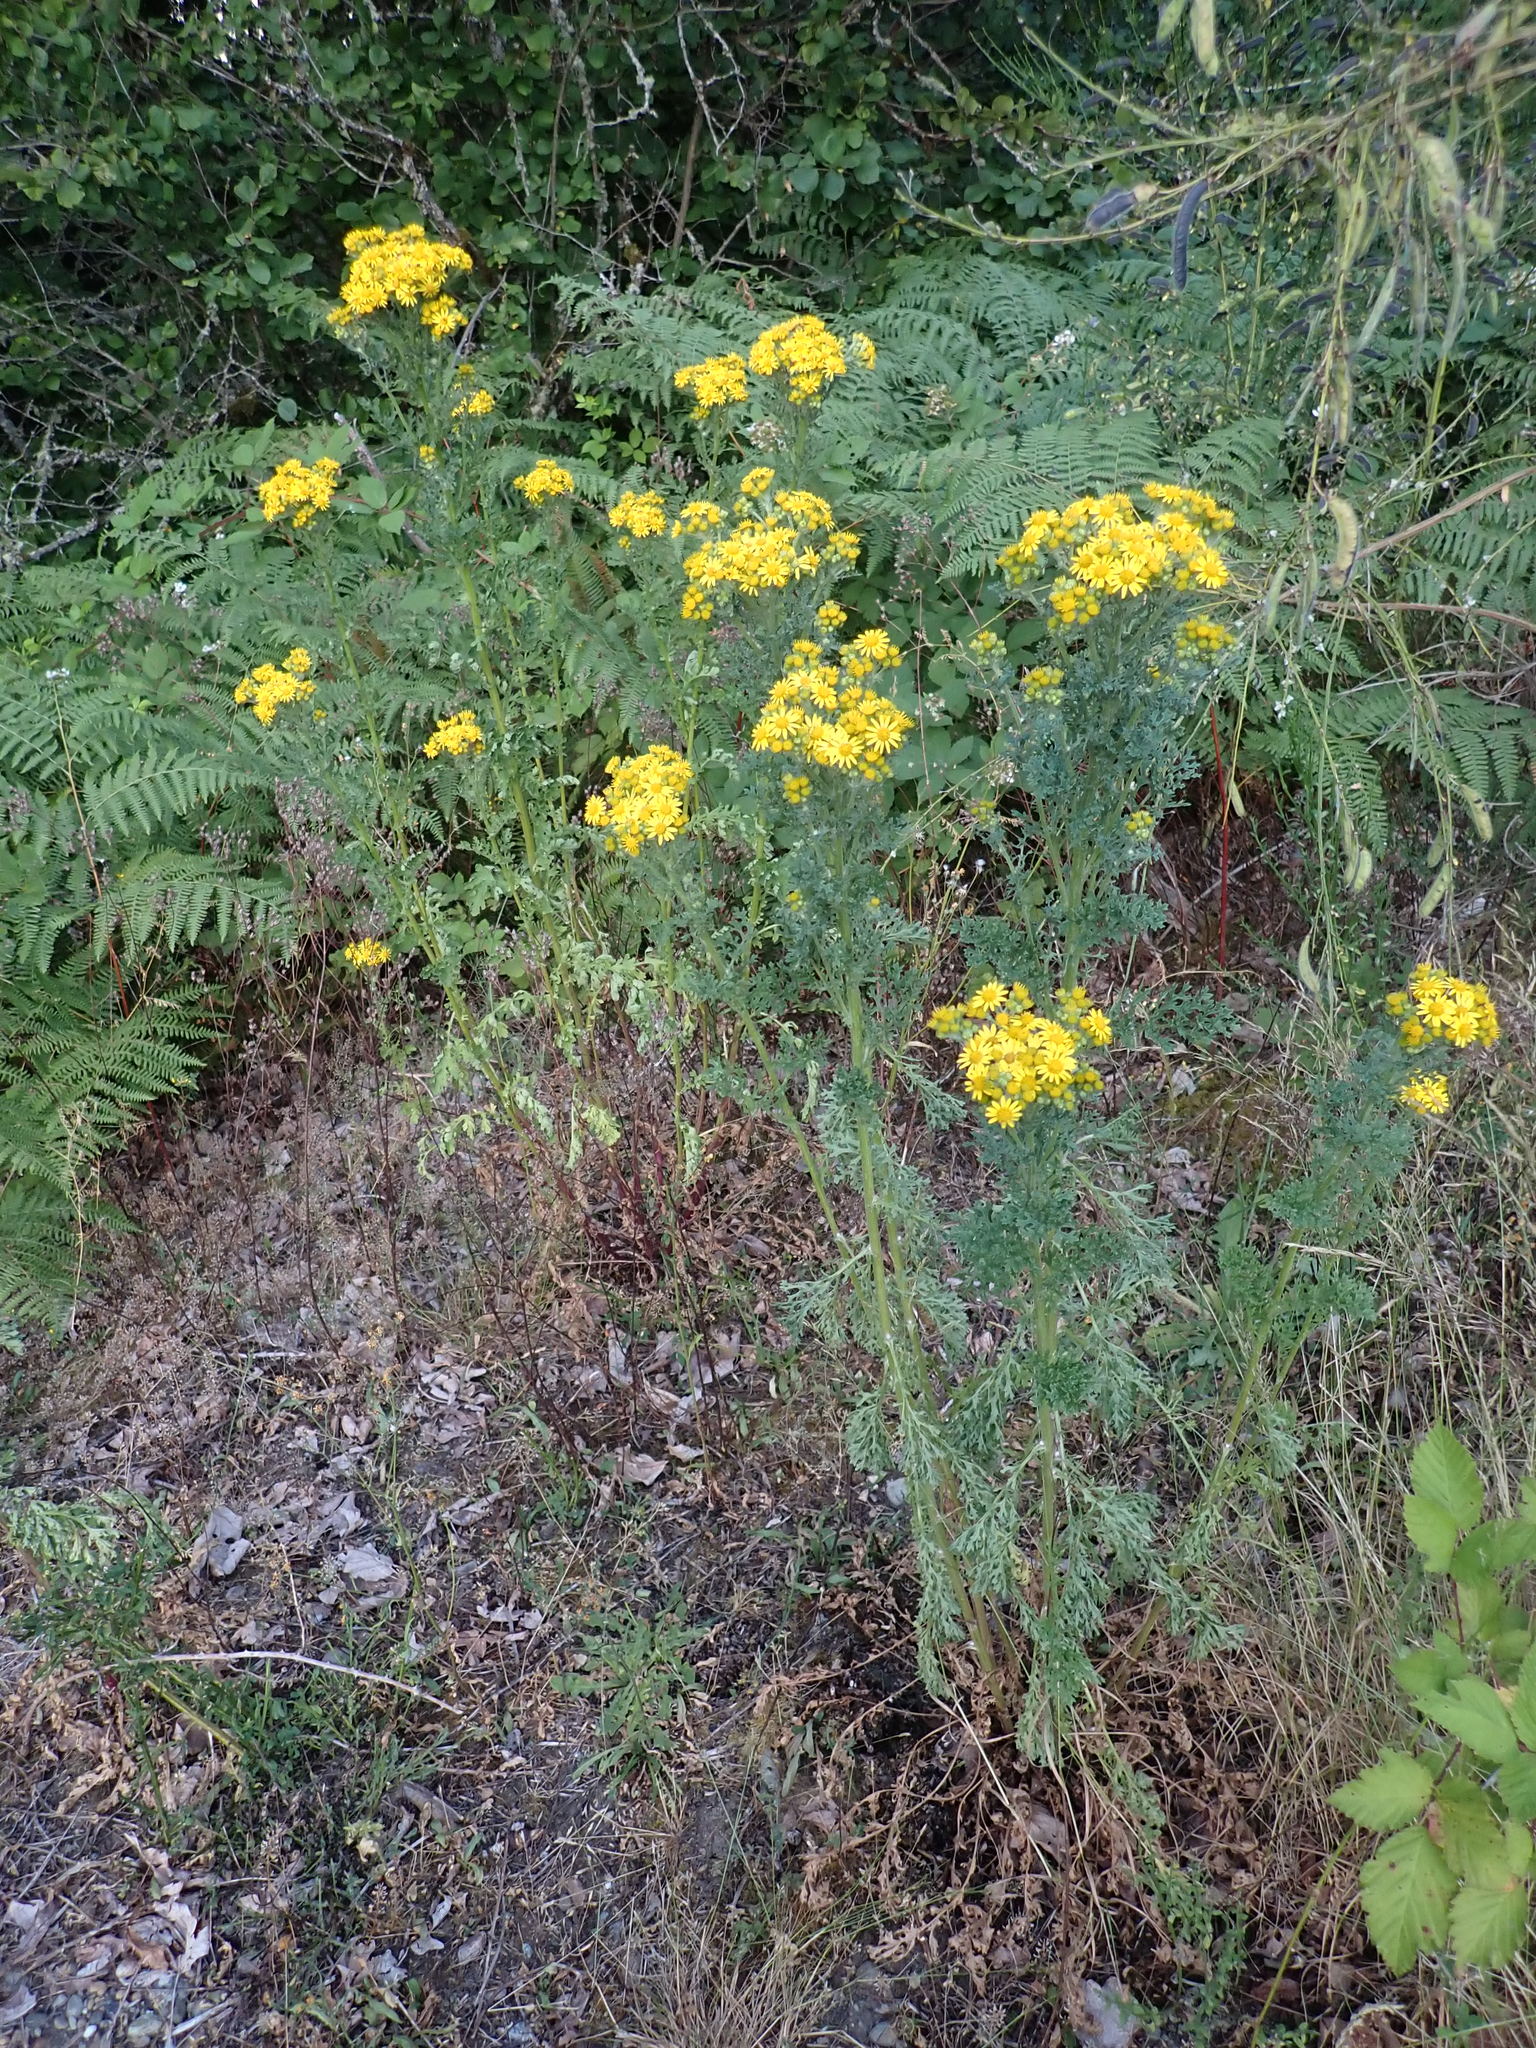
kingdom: Plantae
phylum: Tracheophyta
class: Magnoliopsida
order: Asterales
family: Asteraceae
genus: Jacobaea
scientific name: Jacobaea vulgaris
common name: Stinking willie
